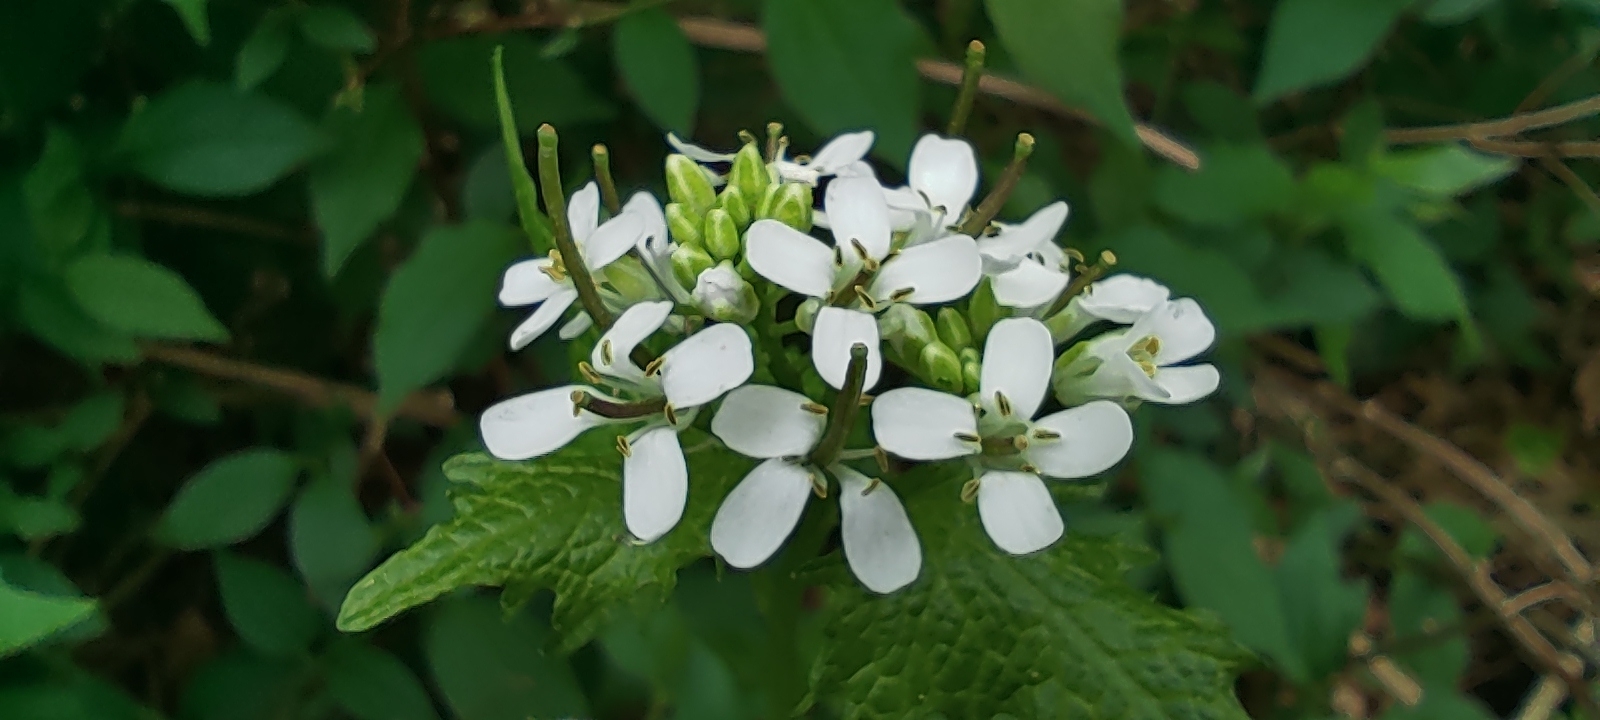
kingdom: Plantae
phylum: Tracheophyta
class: Magnoliopsida
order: Brassicales
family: Brassicaceae
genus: Alliaria
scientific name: Alliaria petiolata
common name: Garlic mustard
